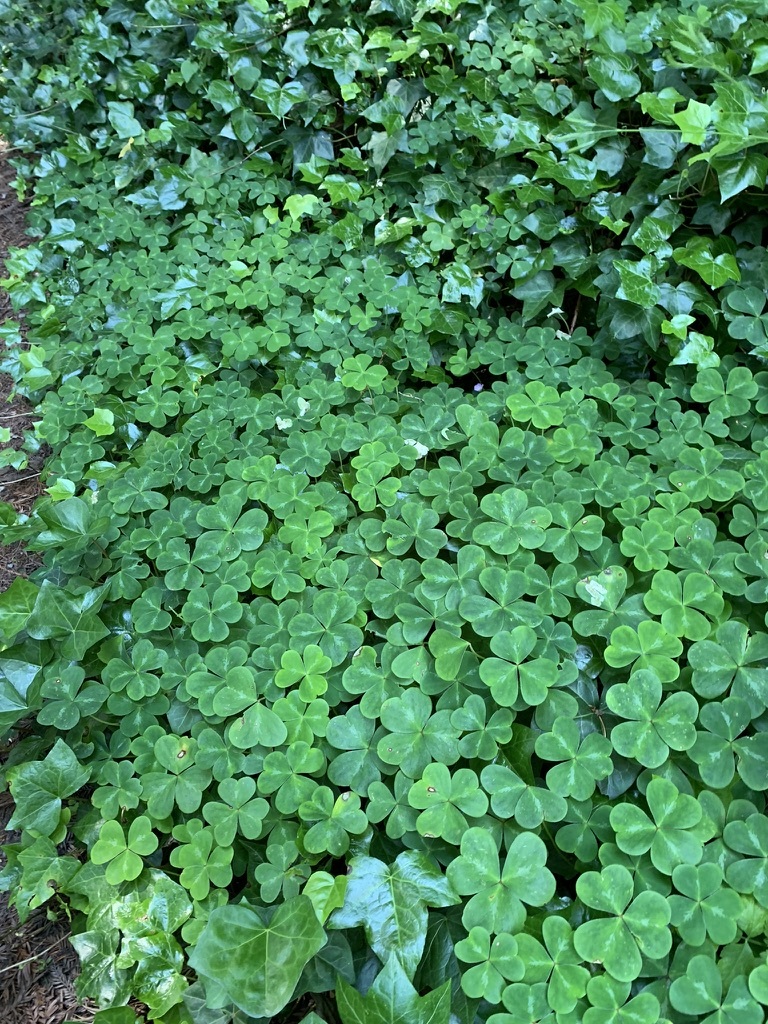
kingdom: Plantae
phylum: Tracheophyta
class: Magnoliopsida
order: Oxalidales
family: Oxalidaceae
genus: Oxalis
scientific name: Oxalis oregana
